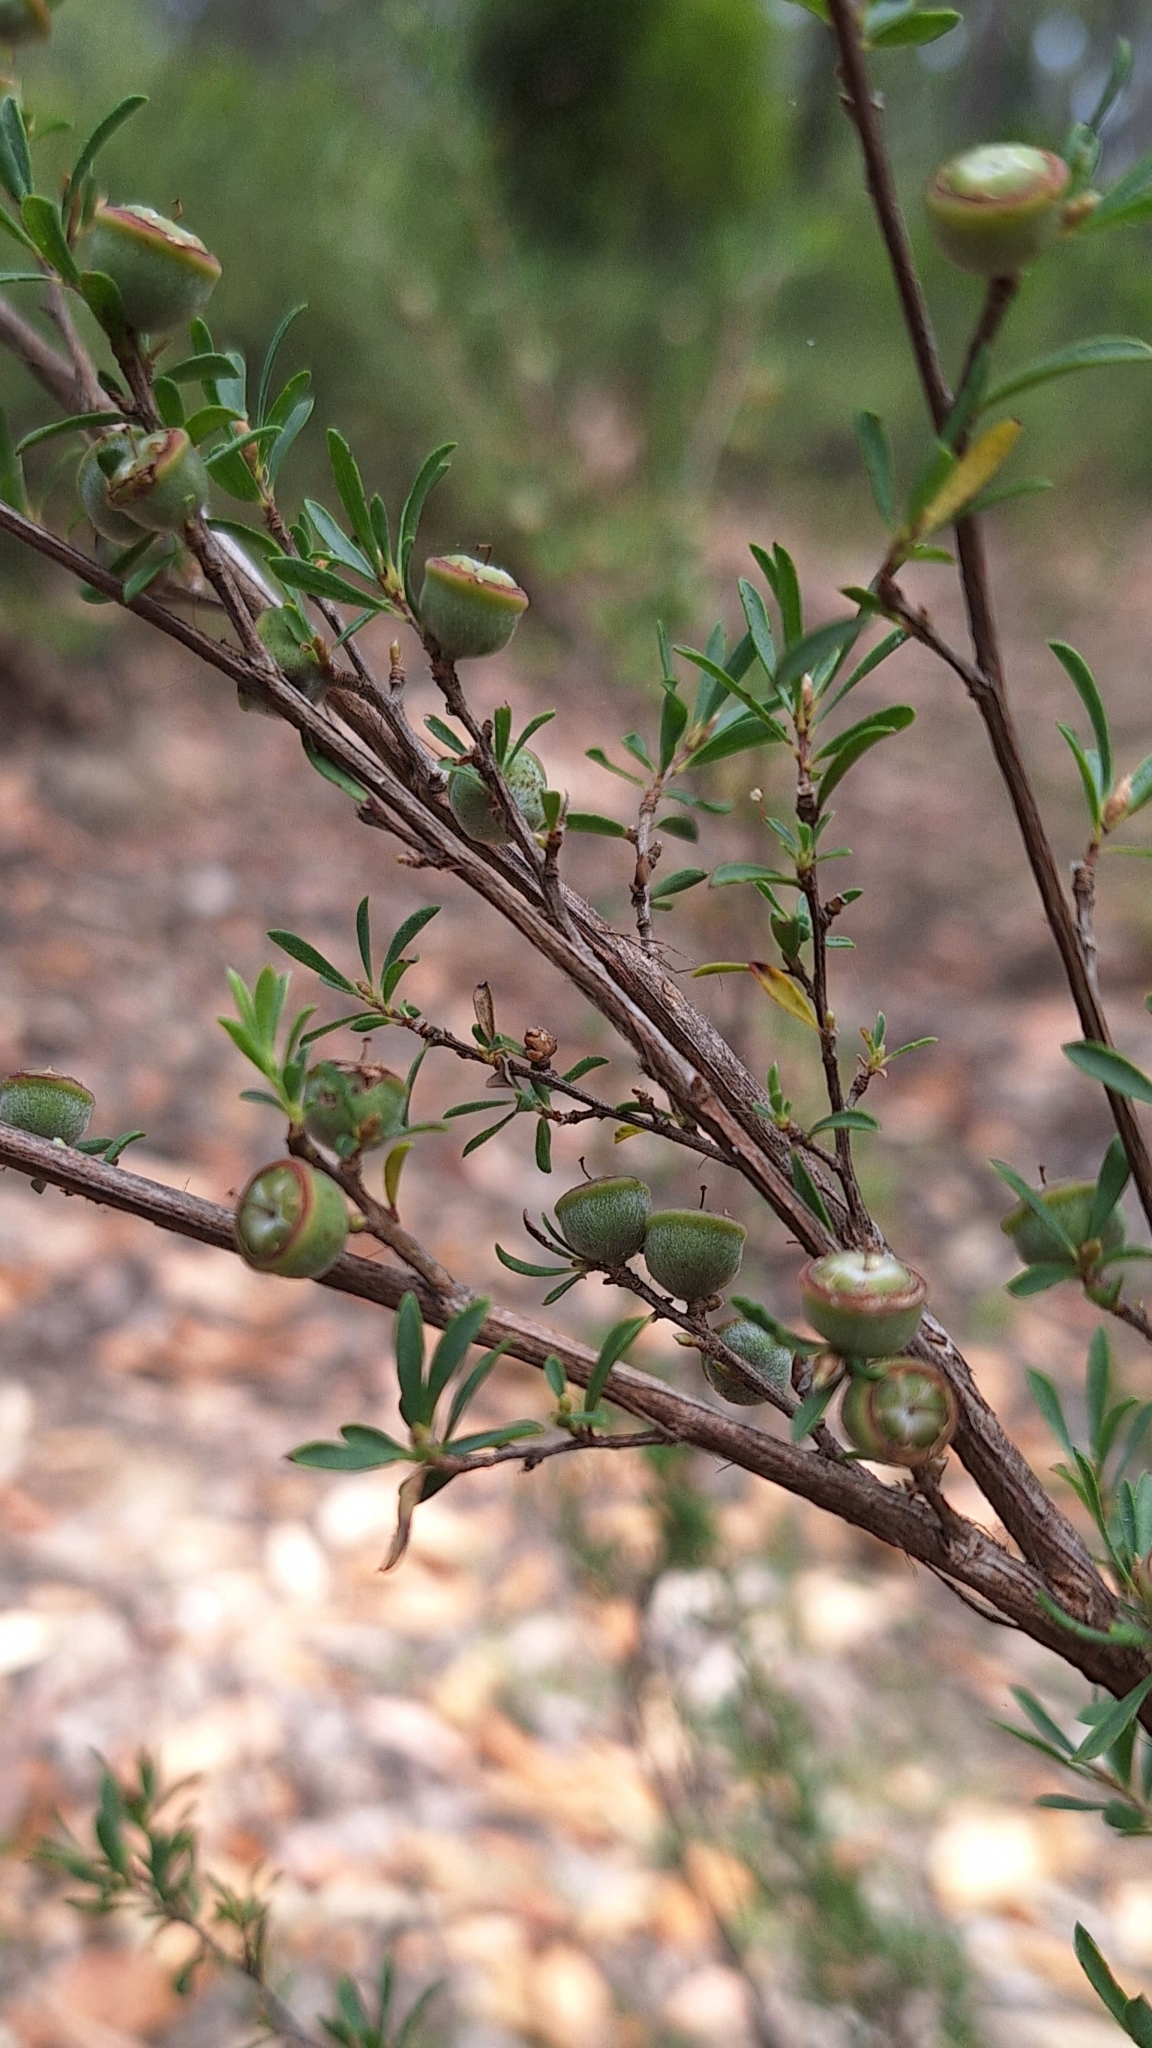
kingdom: Plantae
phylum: Tracheophyta
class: Magnoliopsida
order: Myrtales
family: Myrtaceae
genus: Leptospermum
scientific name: Leptospermum myrsinoides
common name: Heath teatree
